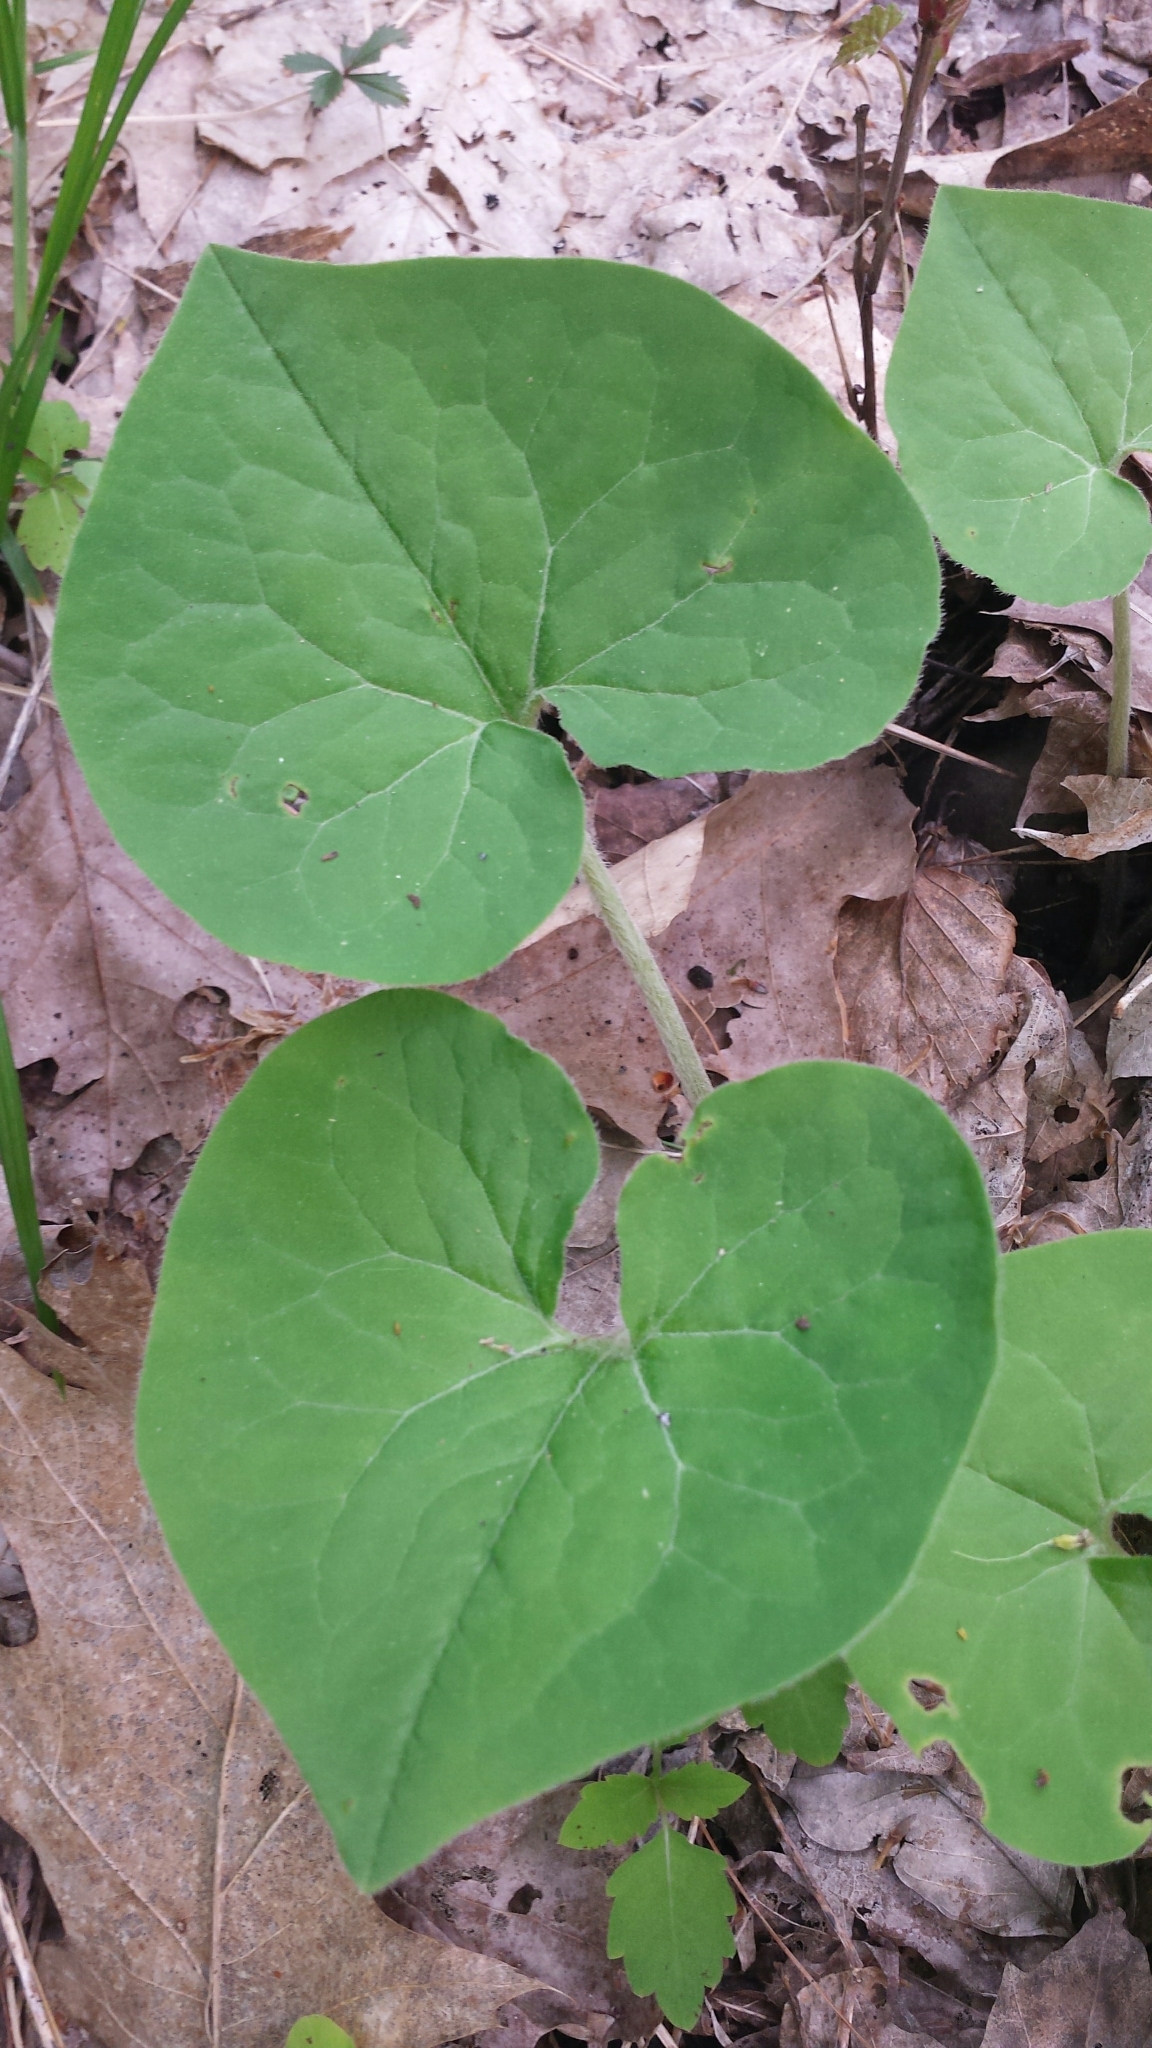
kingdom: Plantae
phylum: Tracheophyta
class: Magnoliopsida
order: Piperales
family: Aristolochiaceae
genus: Asarum
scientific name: Asarum canadense
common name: Wild ginger
